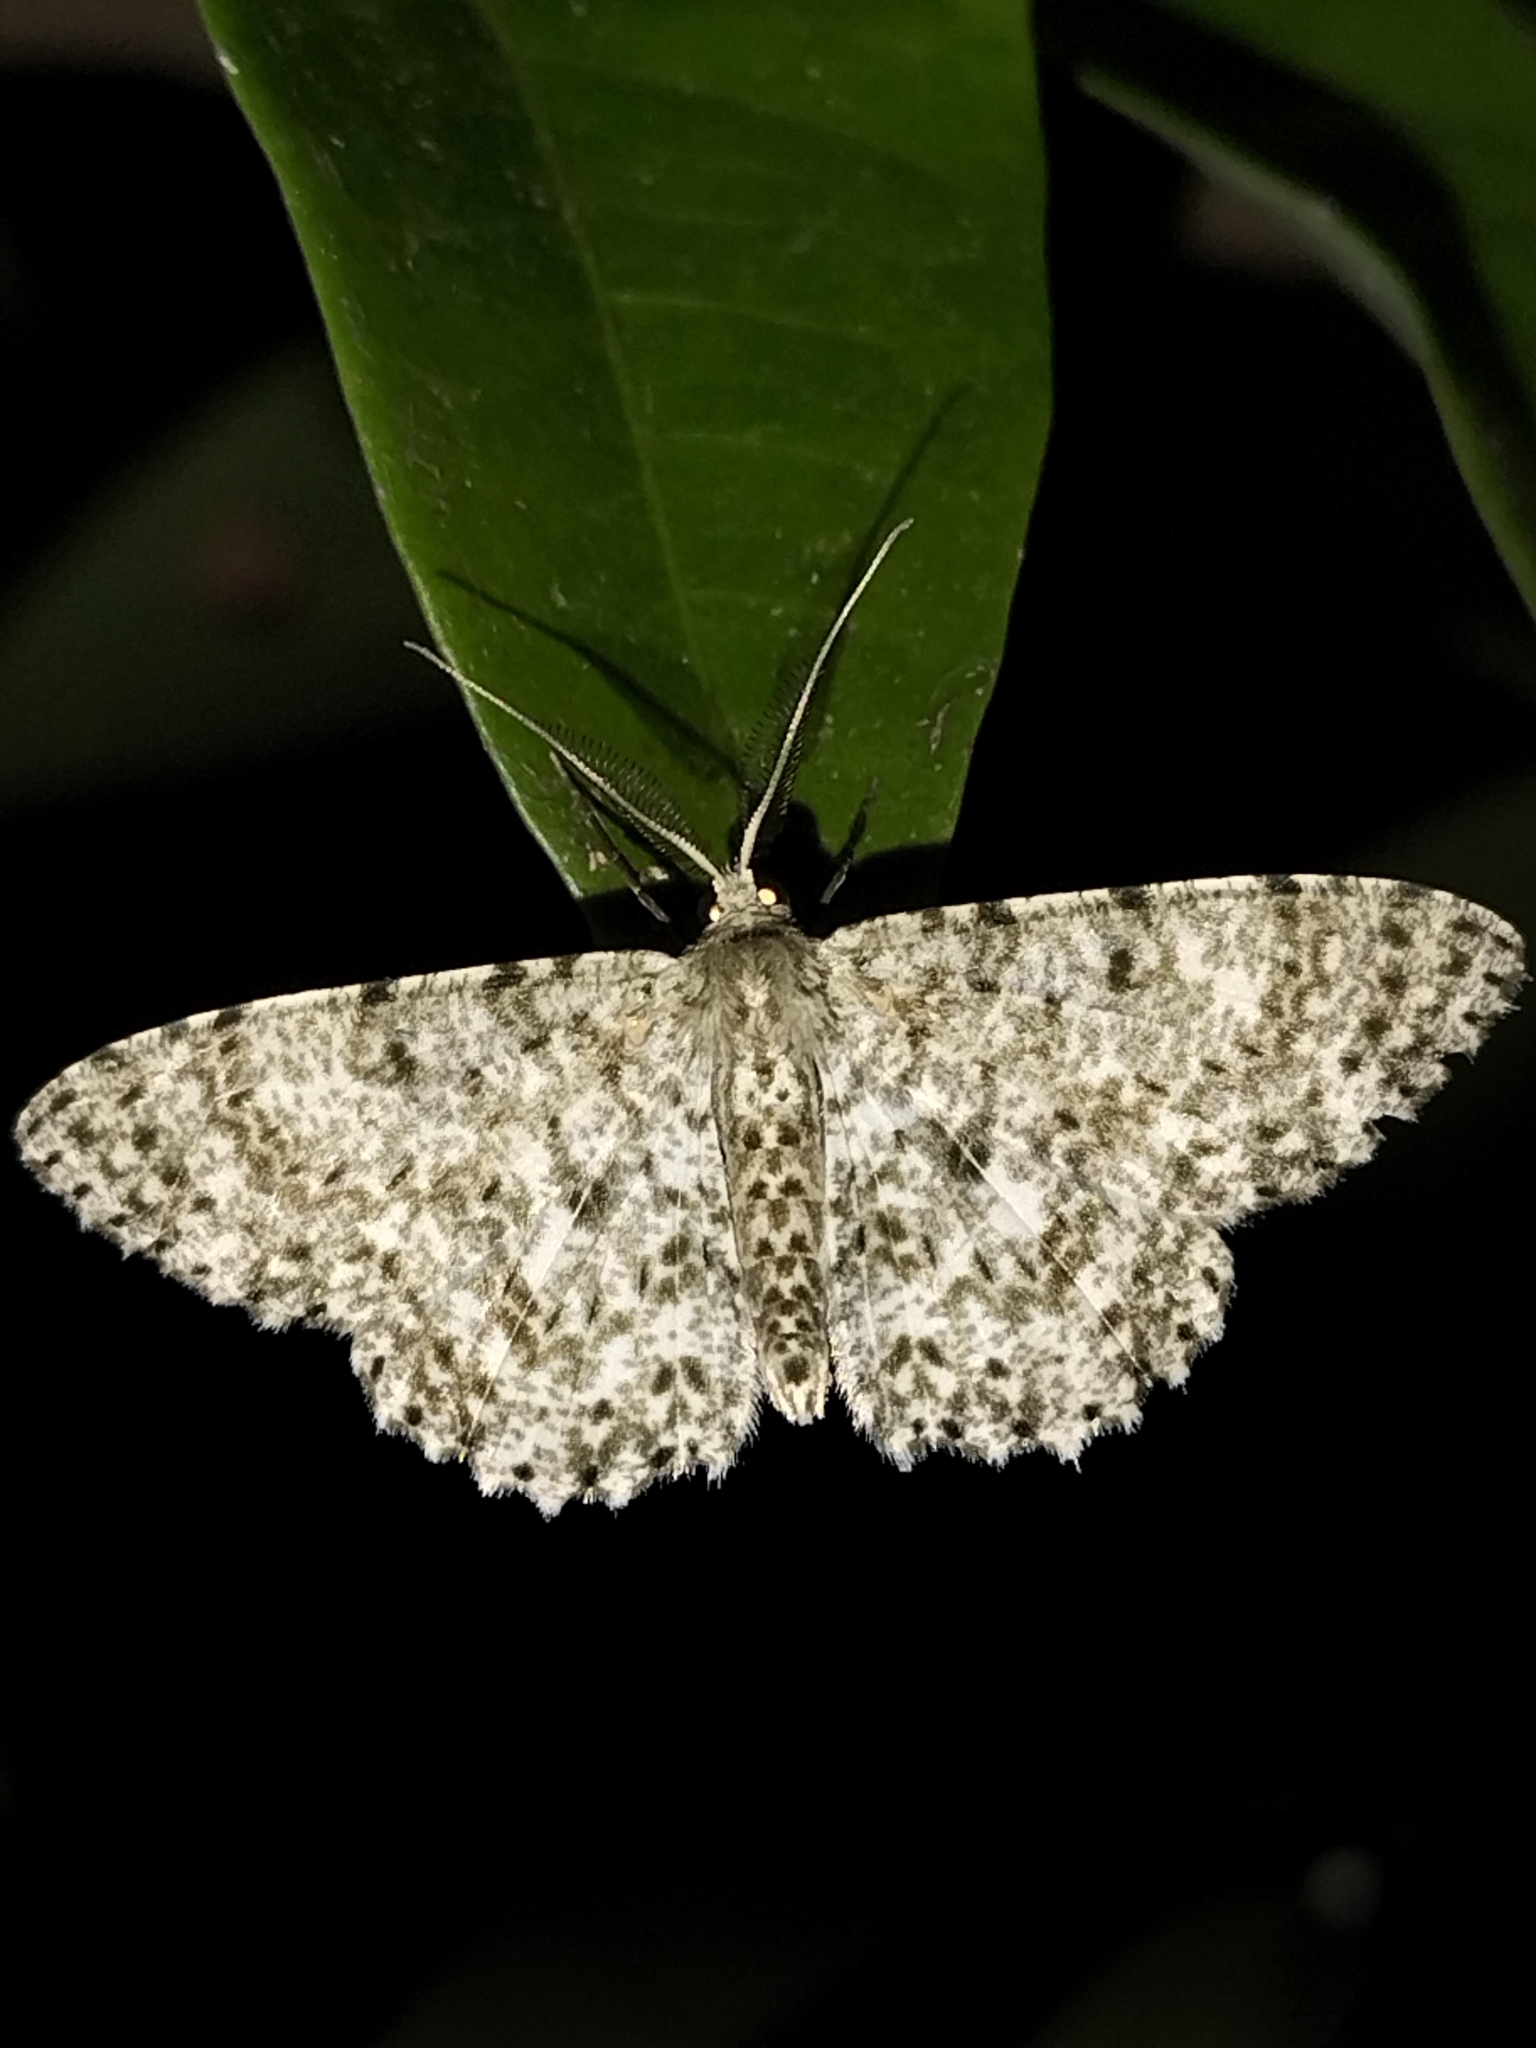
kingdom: Animalia
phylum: Arthropoda
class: Insecta
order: Lepidoptera
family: Geometridae
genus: Catoria
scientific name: Catoria camelaria
